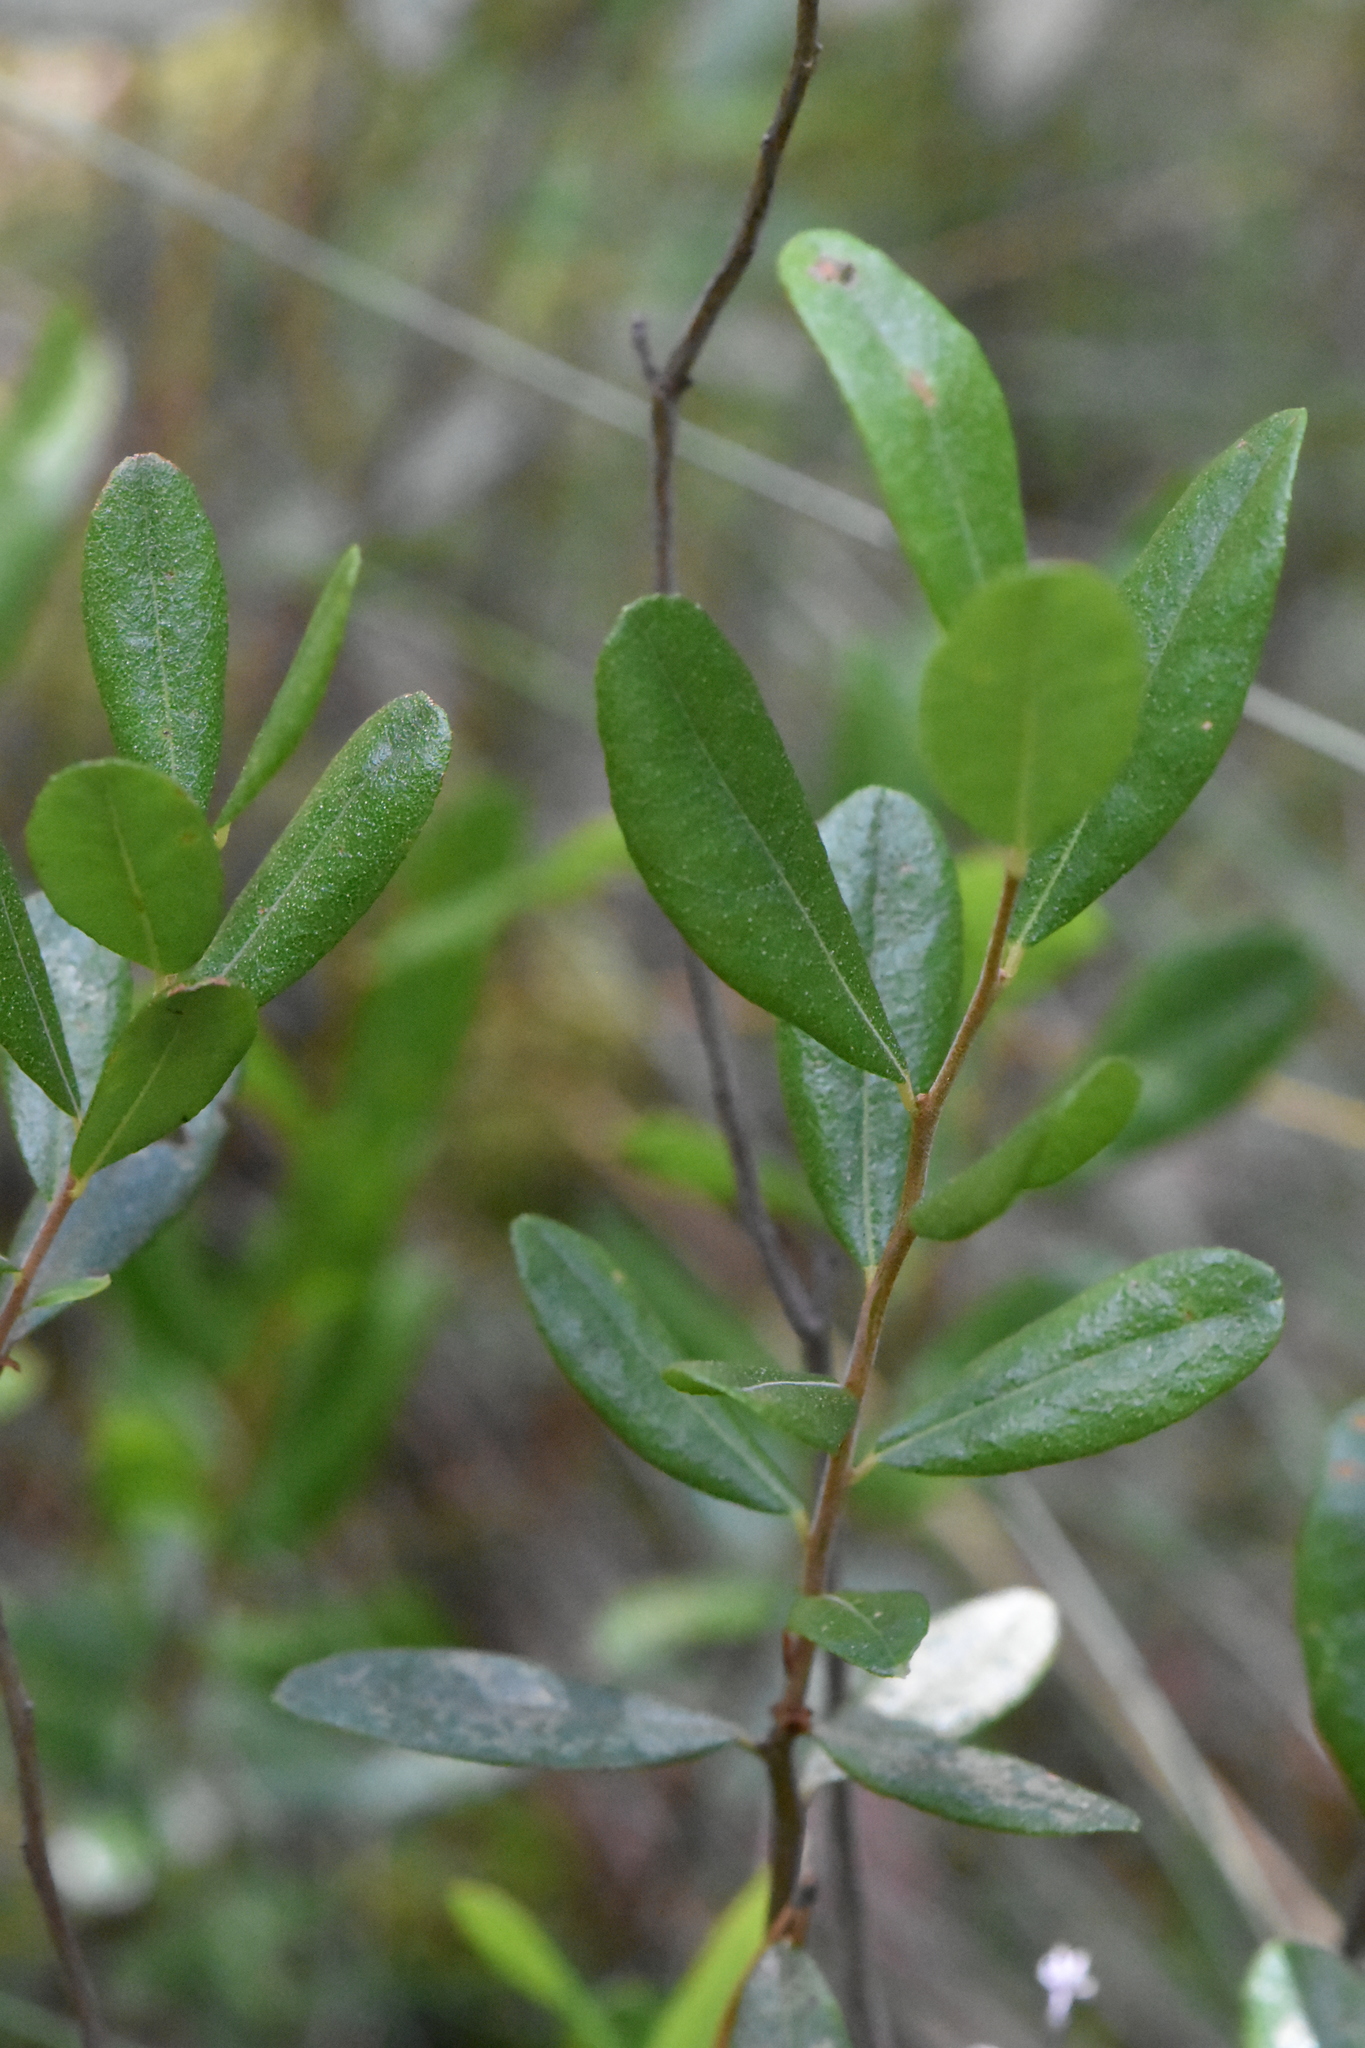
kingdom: Plantae
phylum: Tracheophyta
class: Magnoliopsida
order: Ericales
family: Ericaceae
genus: Chamaedaphne
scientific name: Chamaedaphne calyculata
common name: Leatherleaf
